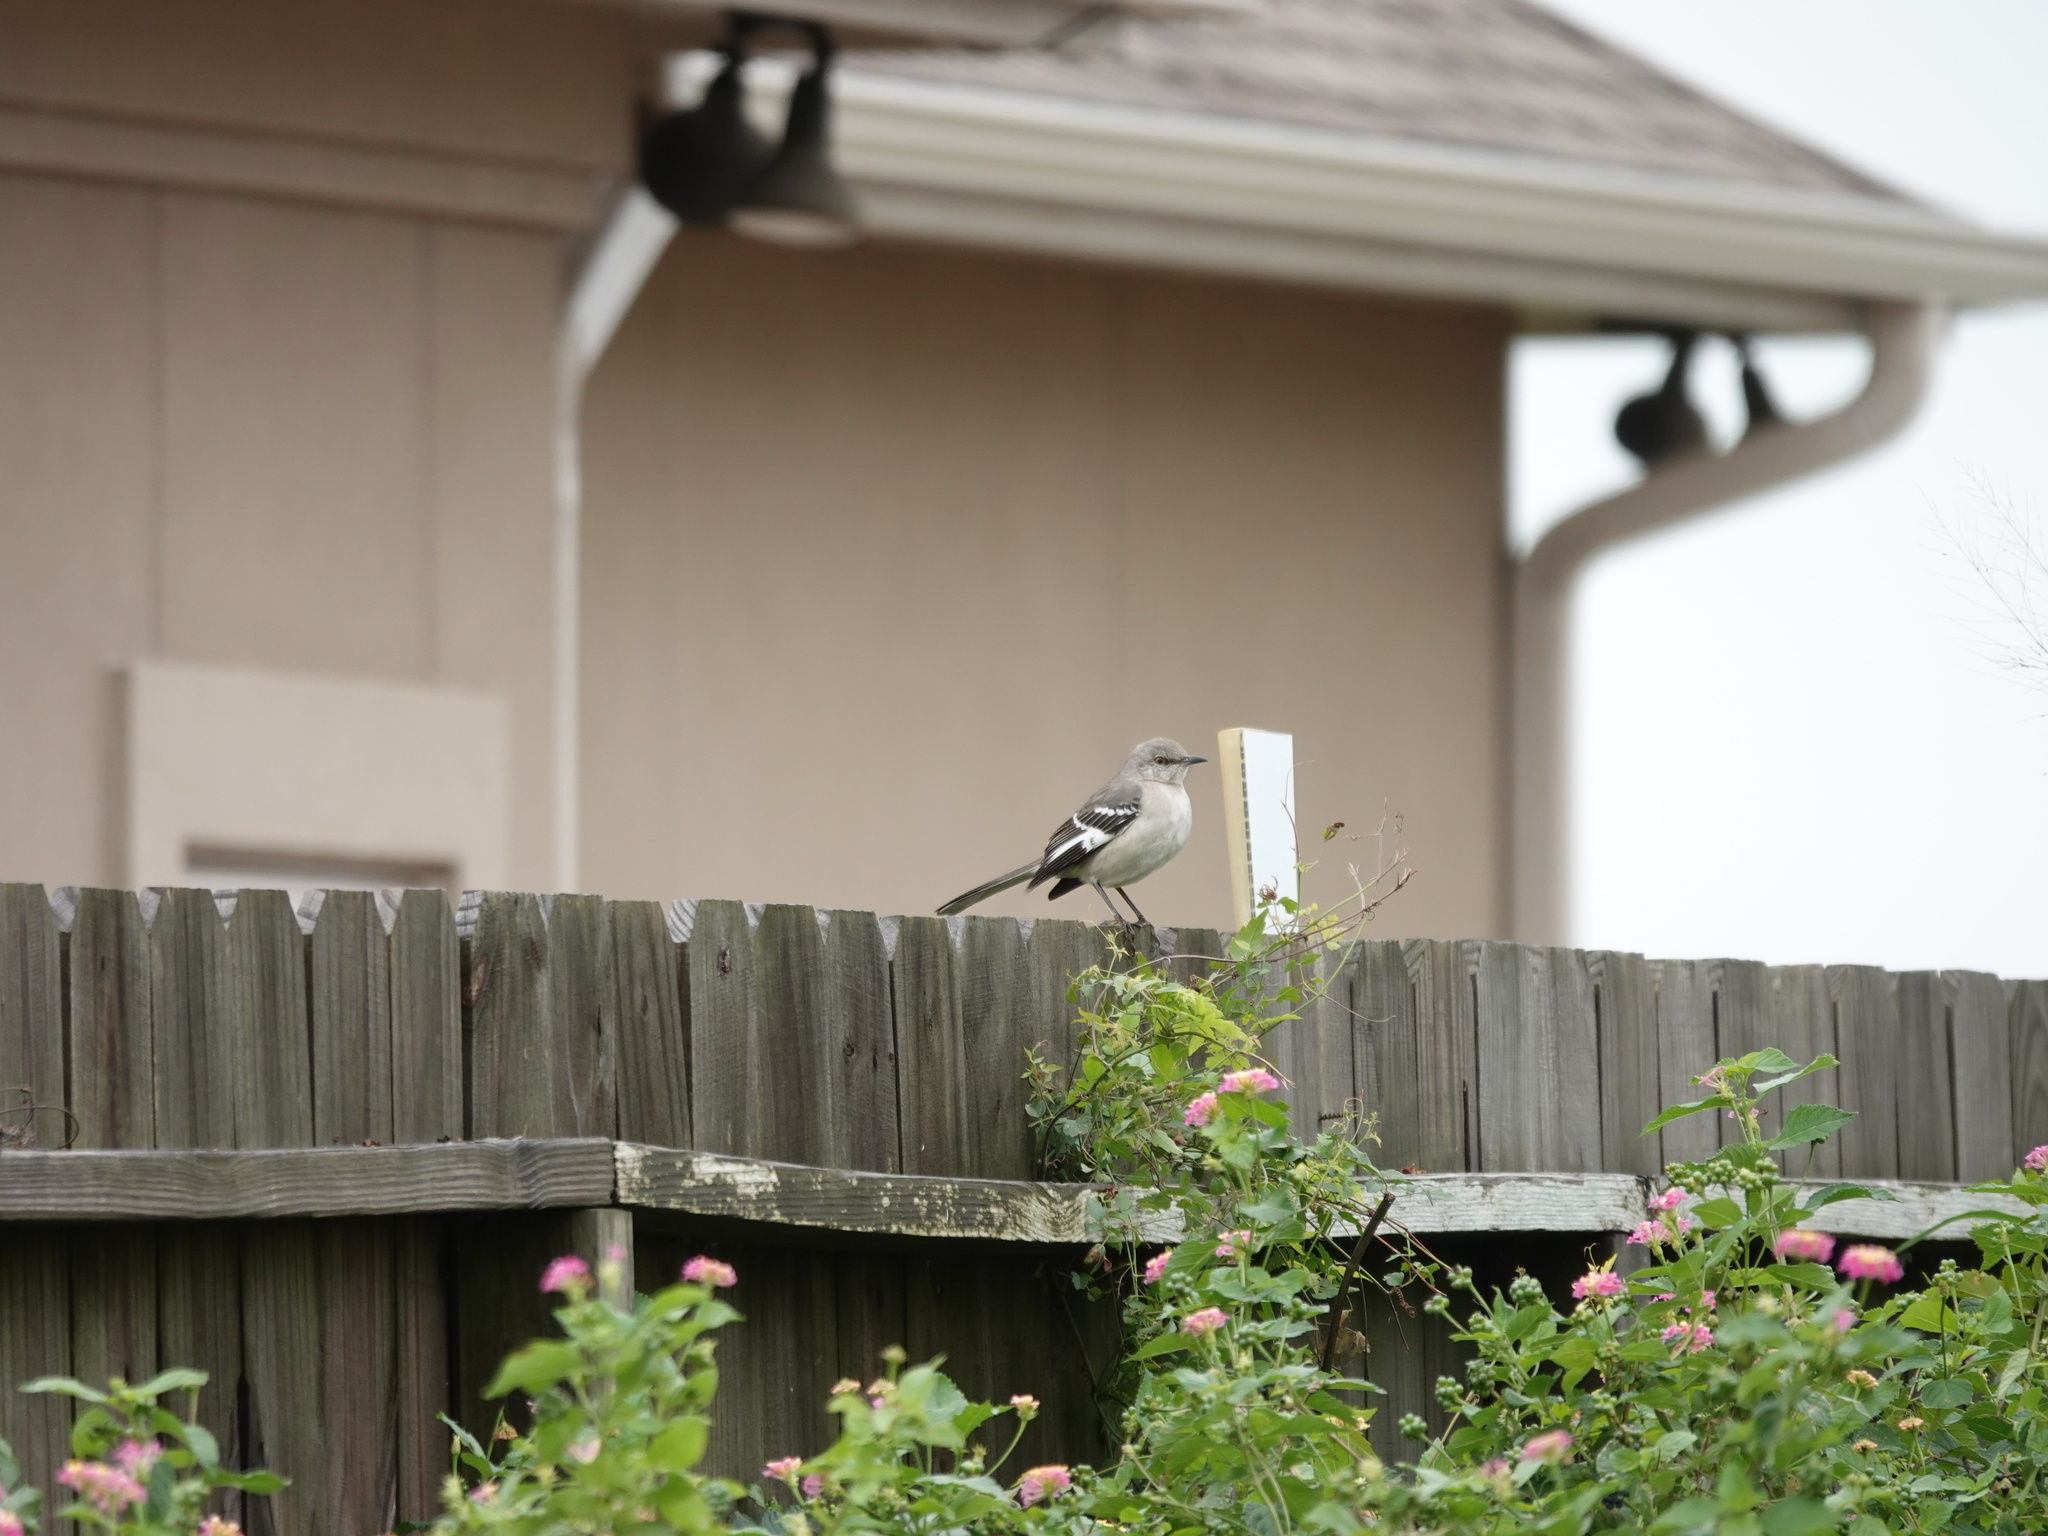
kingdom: Animalia
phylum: Chordata
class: Aves
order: Passeriformes
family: Mimidae
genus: Mimus
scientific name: Mimus polyglottos
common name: Northern mockingbird
